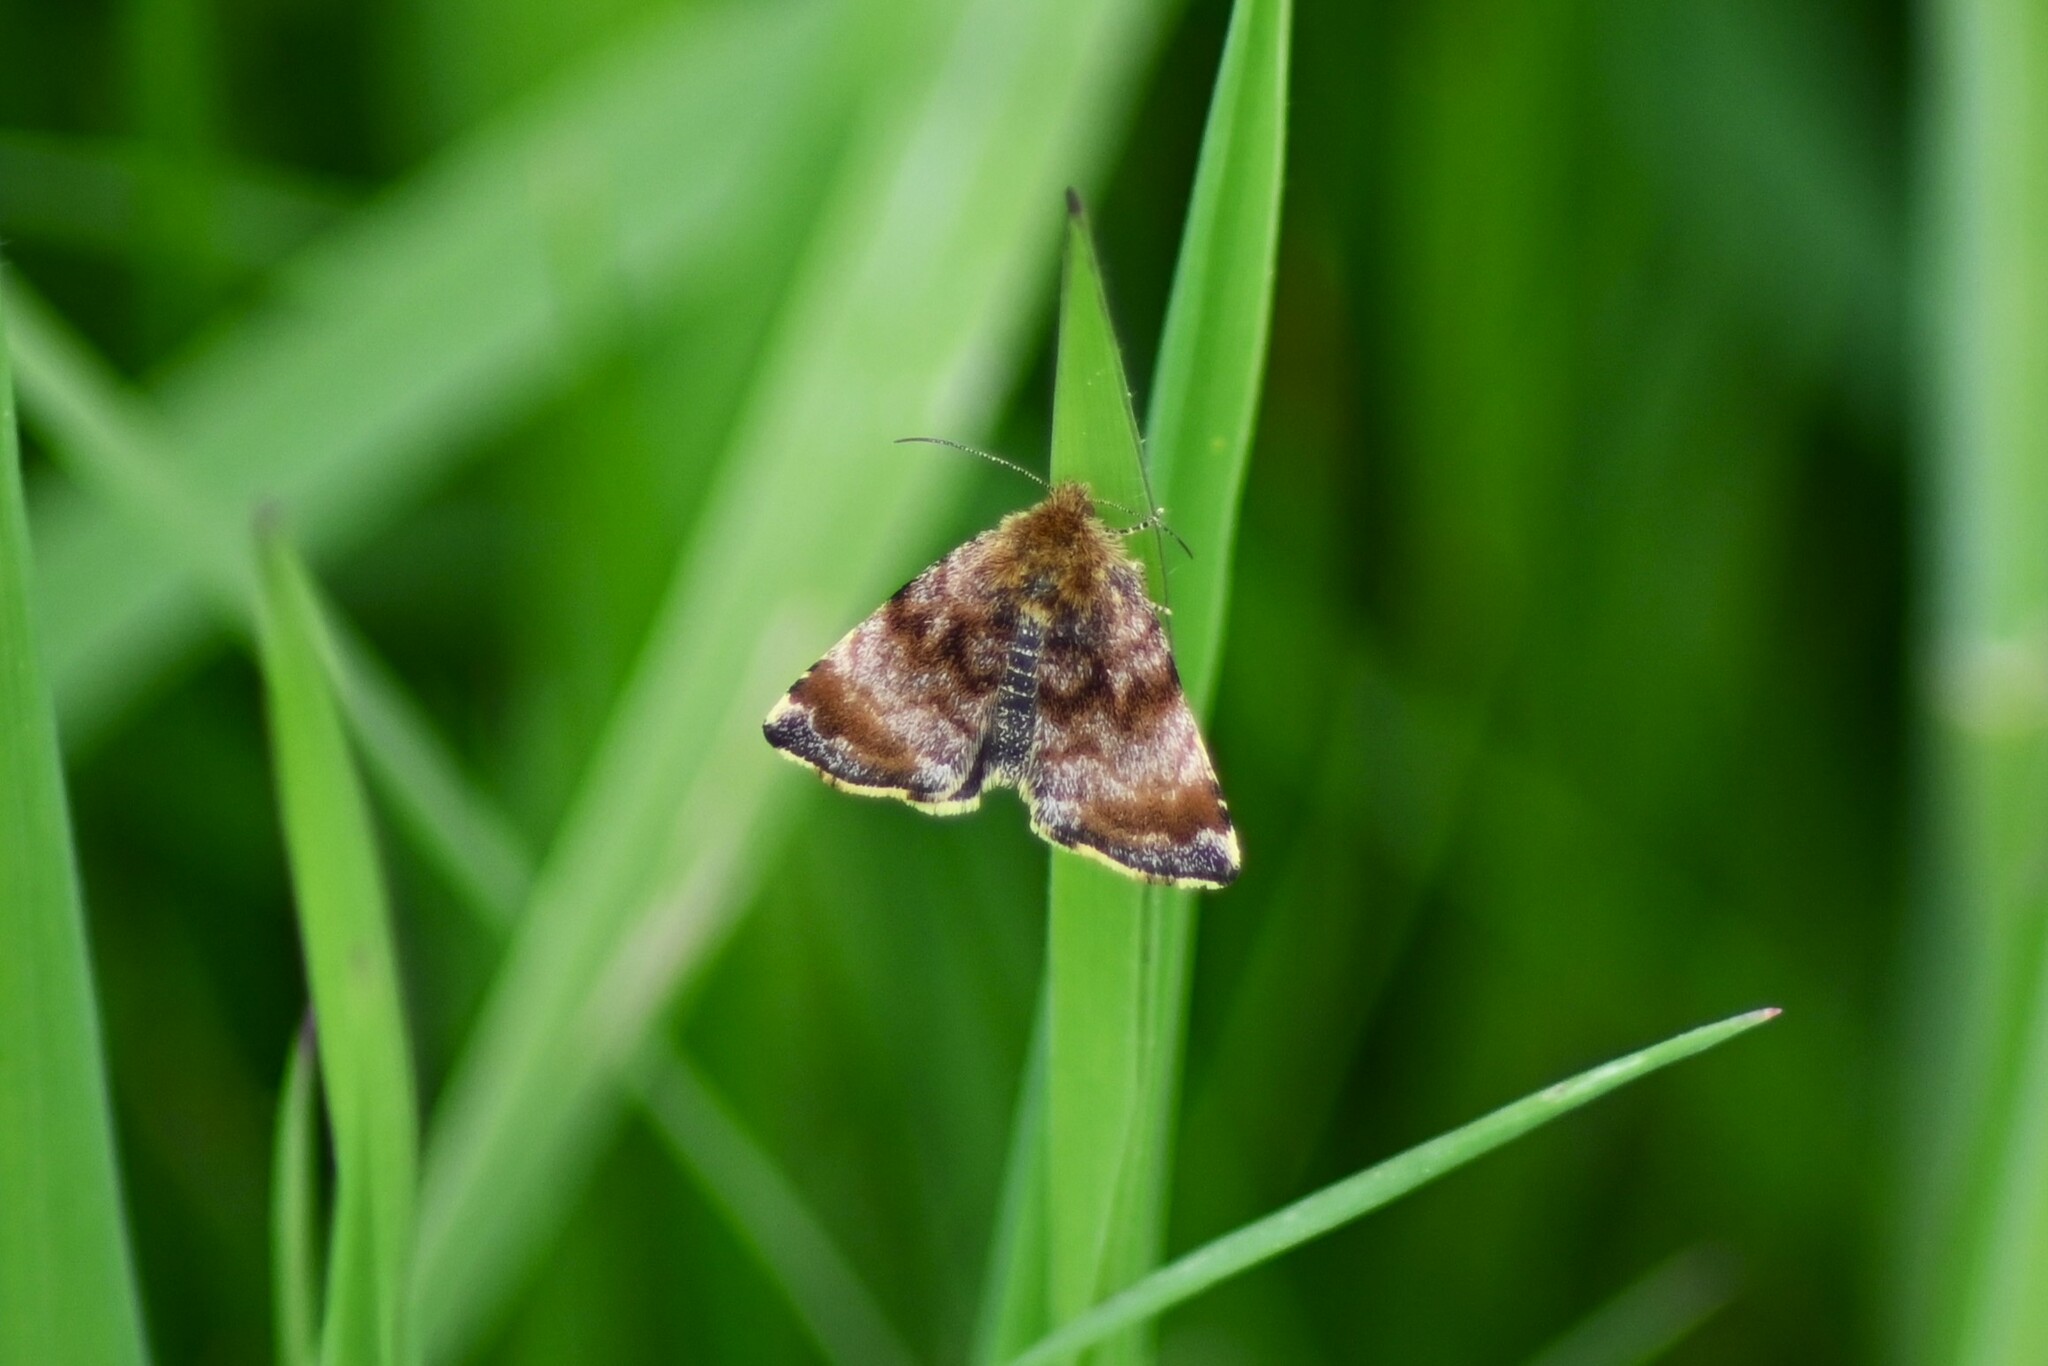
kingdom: Animalia
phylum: Arthropoda
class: Insecta
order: Lepidoptera
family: Noctuidae
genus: Panemeria
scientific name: Panemeria tenebrata
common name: Small yellow underwing
